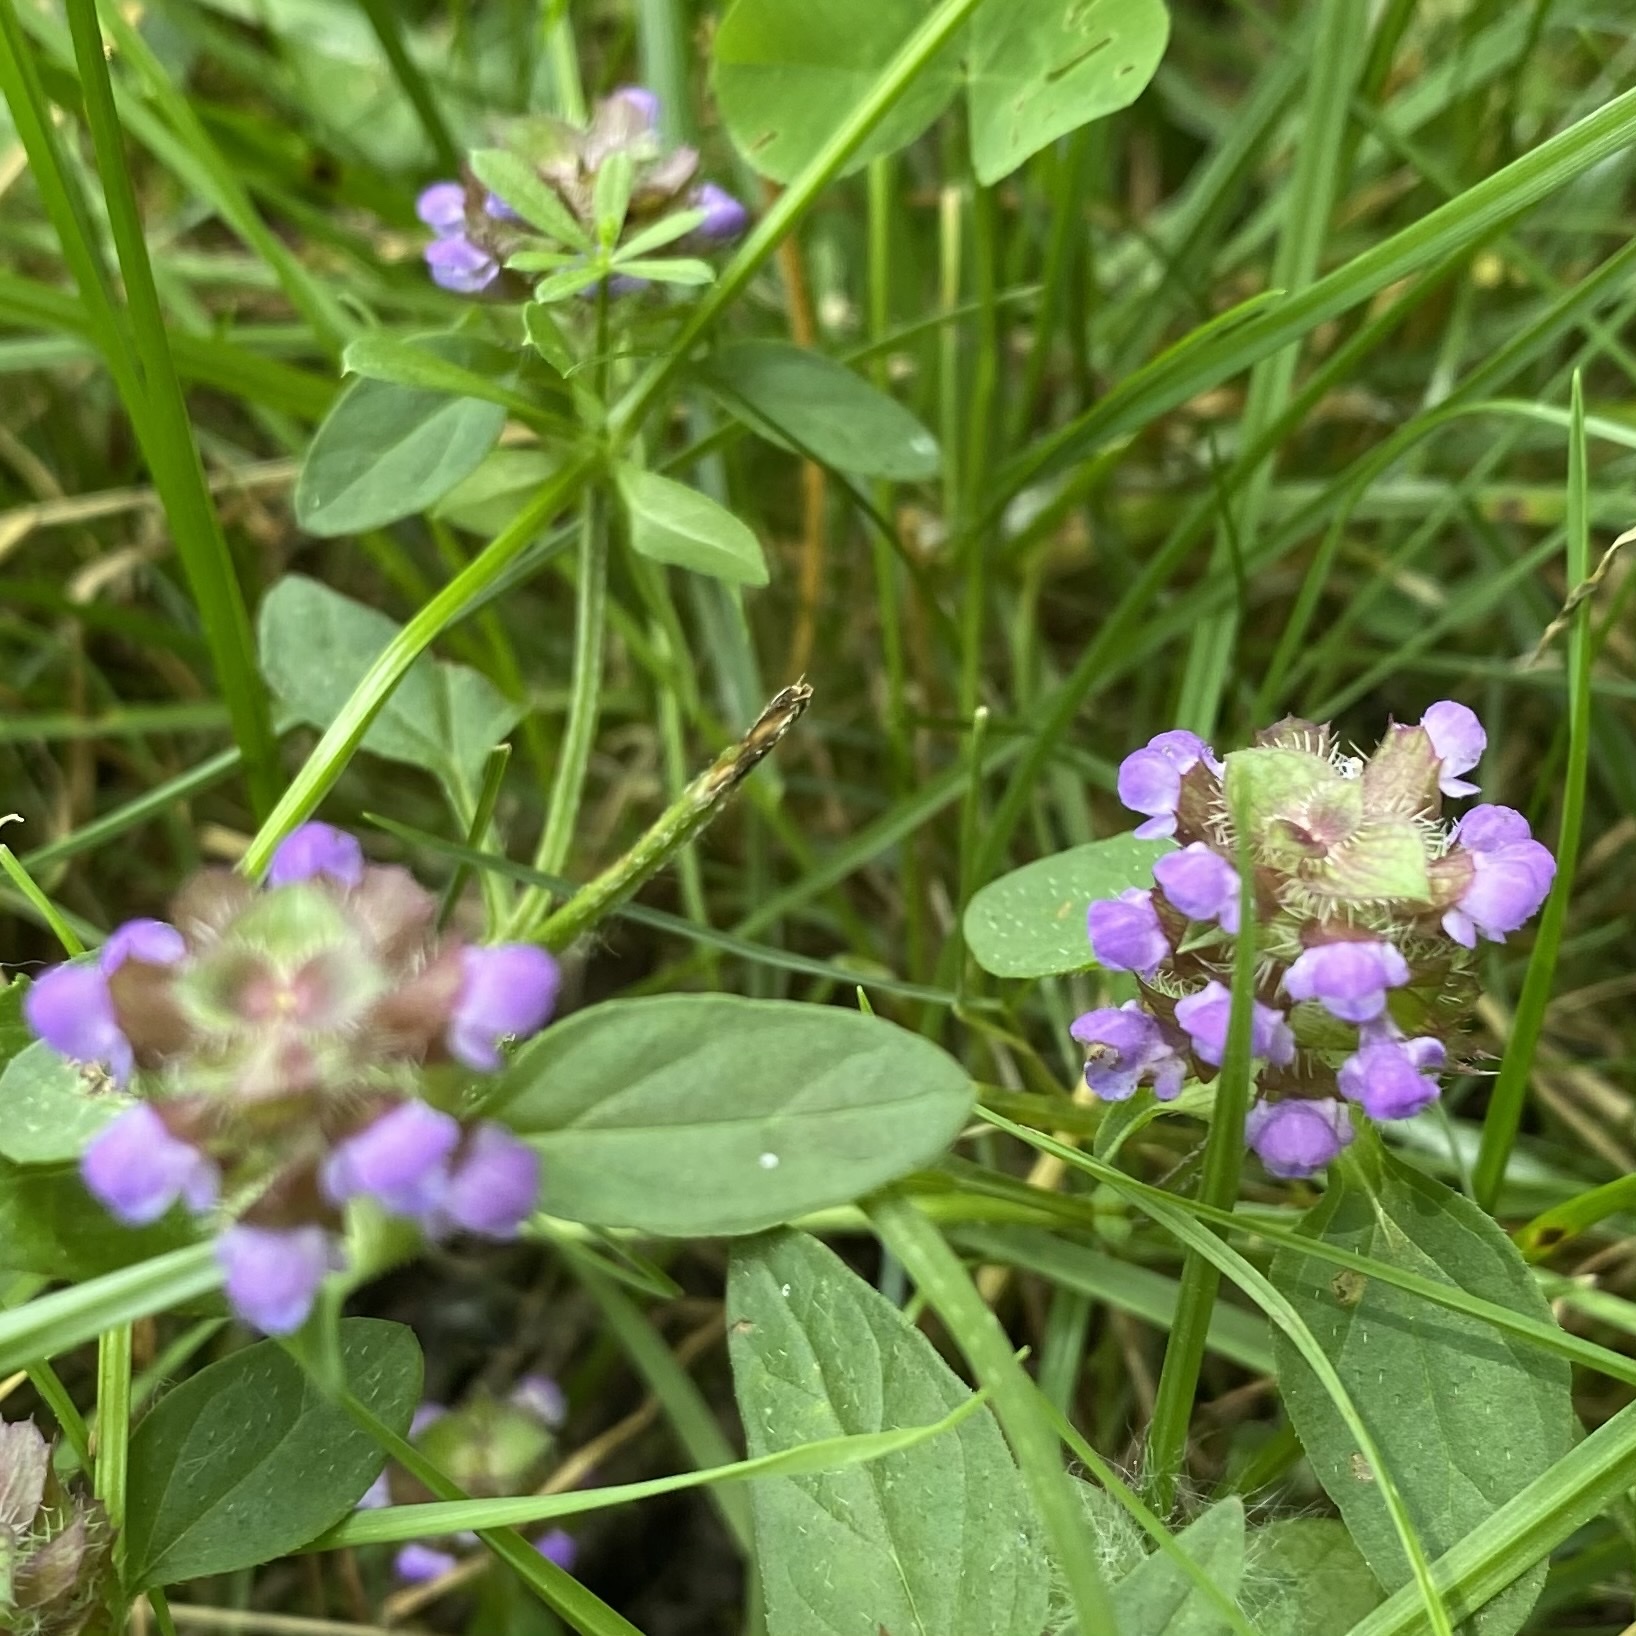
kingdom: Plantae
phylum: Tracheophyta
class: Magnoliopsida
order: Lamiales
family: Lamiaceae
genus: Prunella
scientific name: Prunella vulgaris
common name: Heal-all
